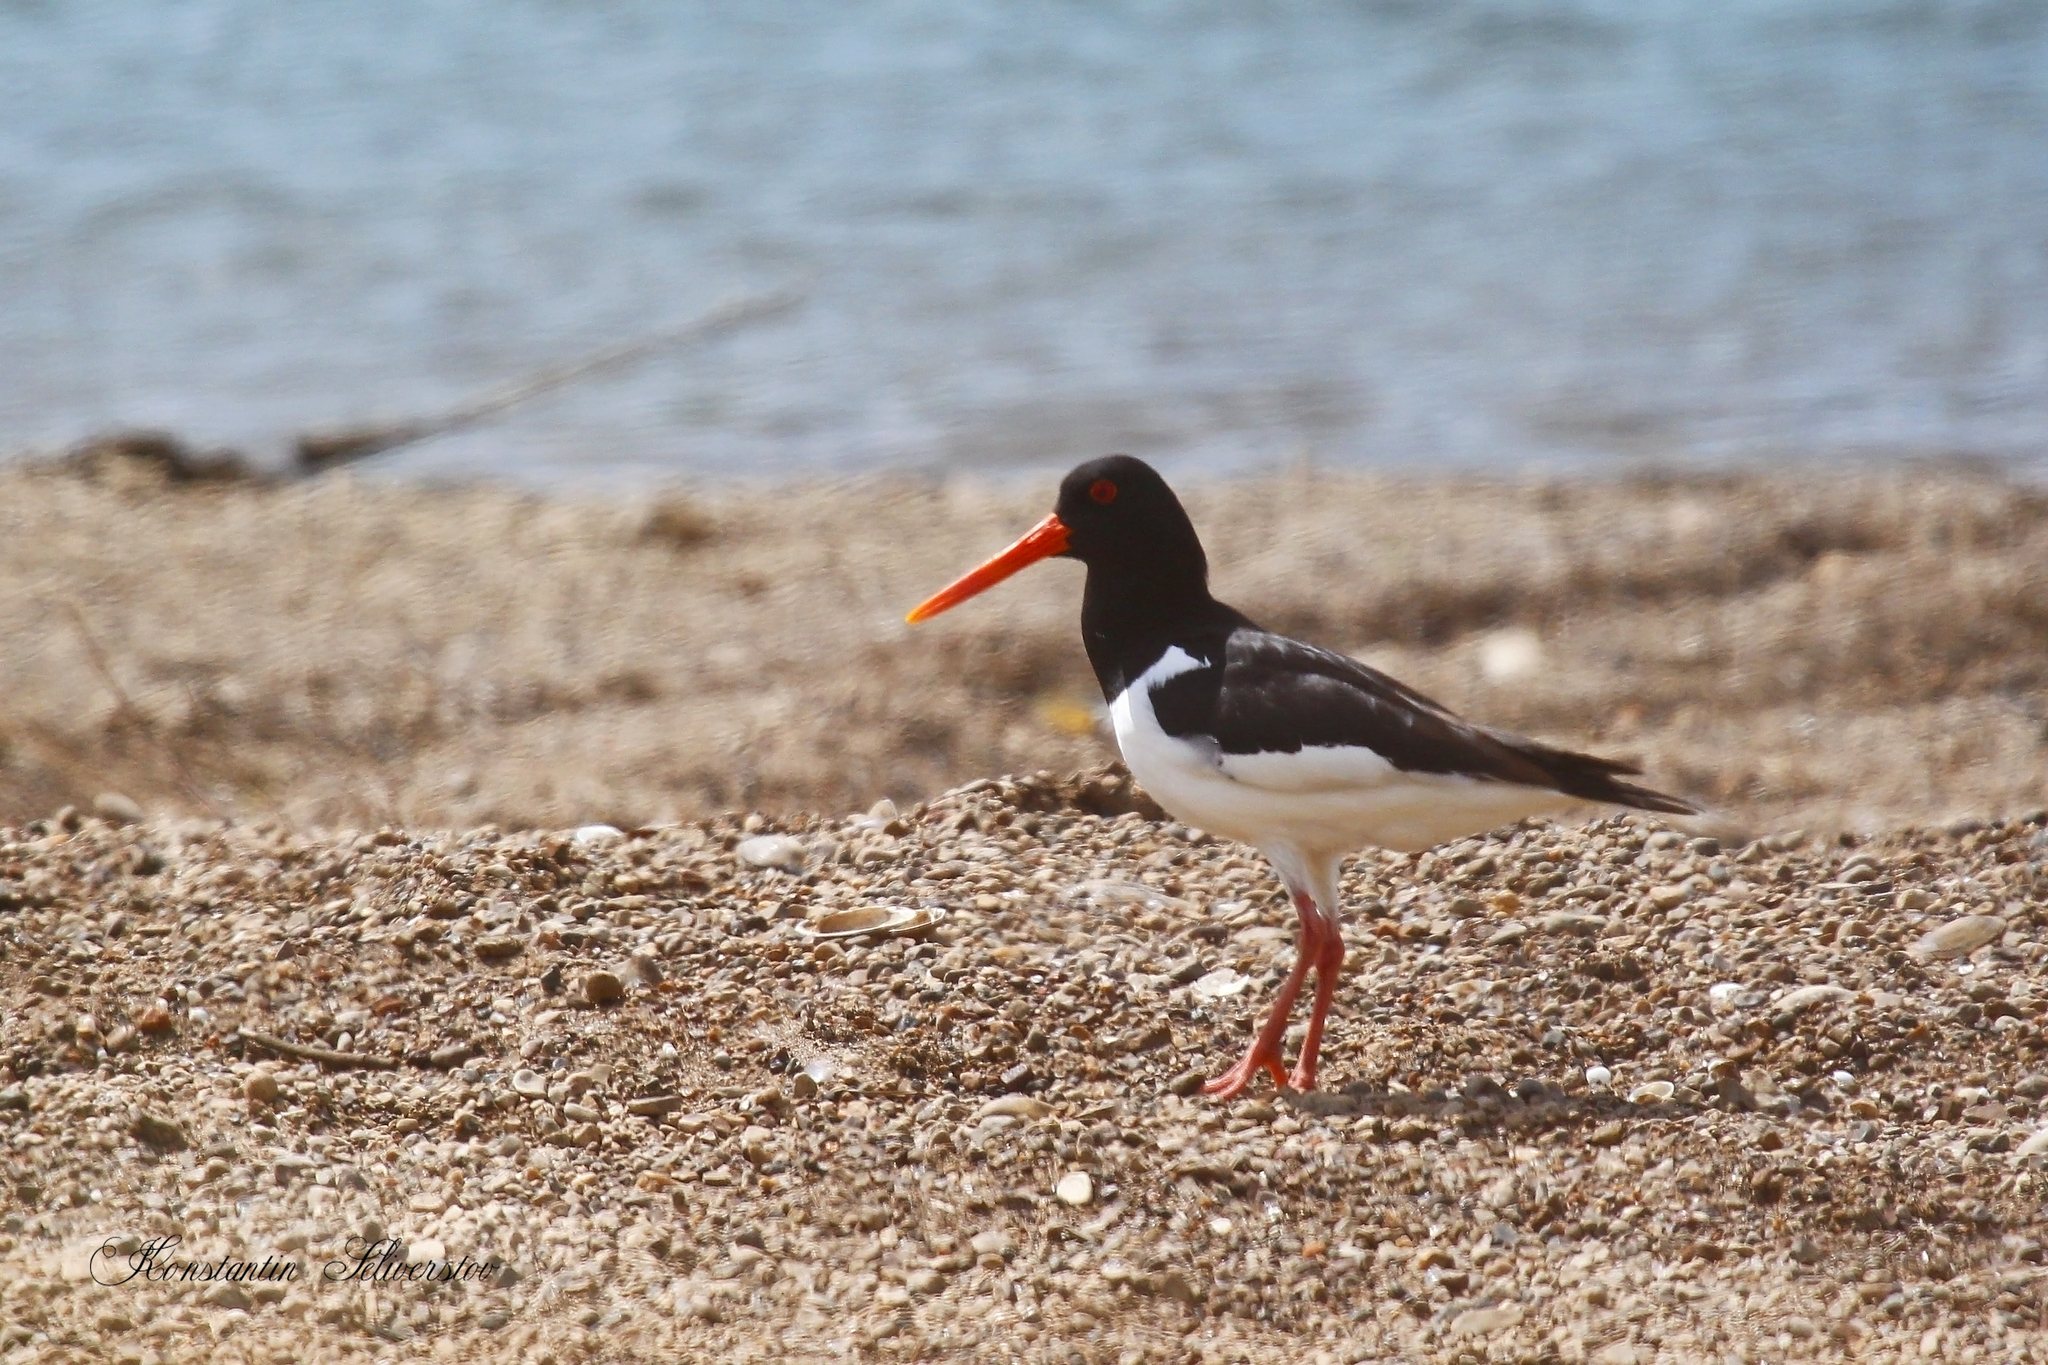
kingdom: Animalia
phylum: Chordata
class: Aves
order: Charadriiformes
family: Haematopodidae
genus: Haematopus
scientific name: Haematopus ostralegus
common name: Eurasian oystercatcher
